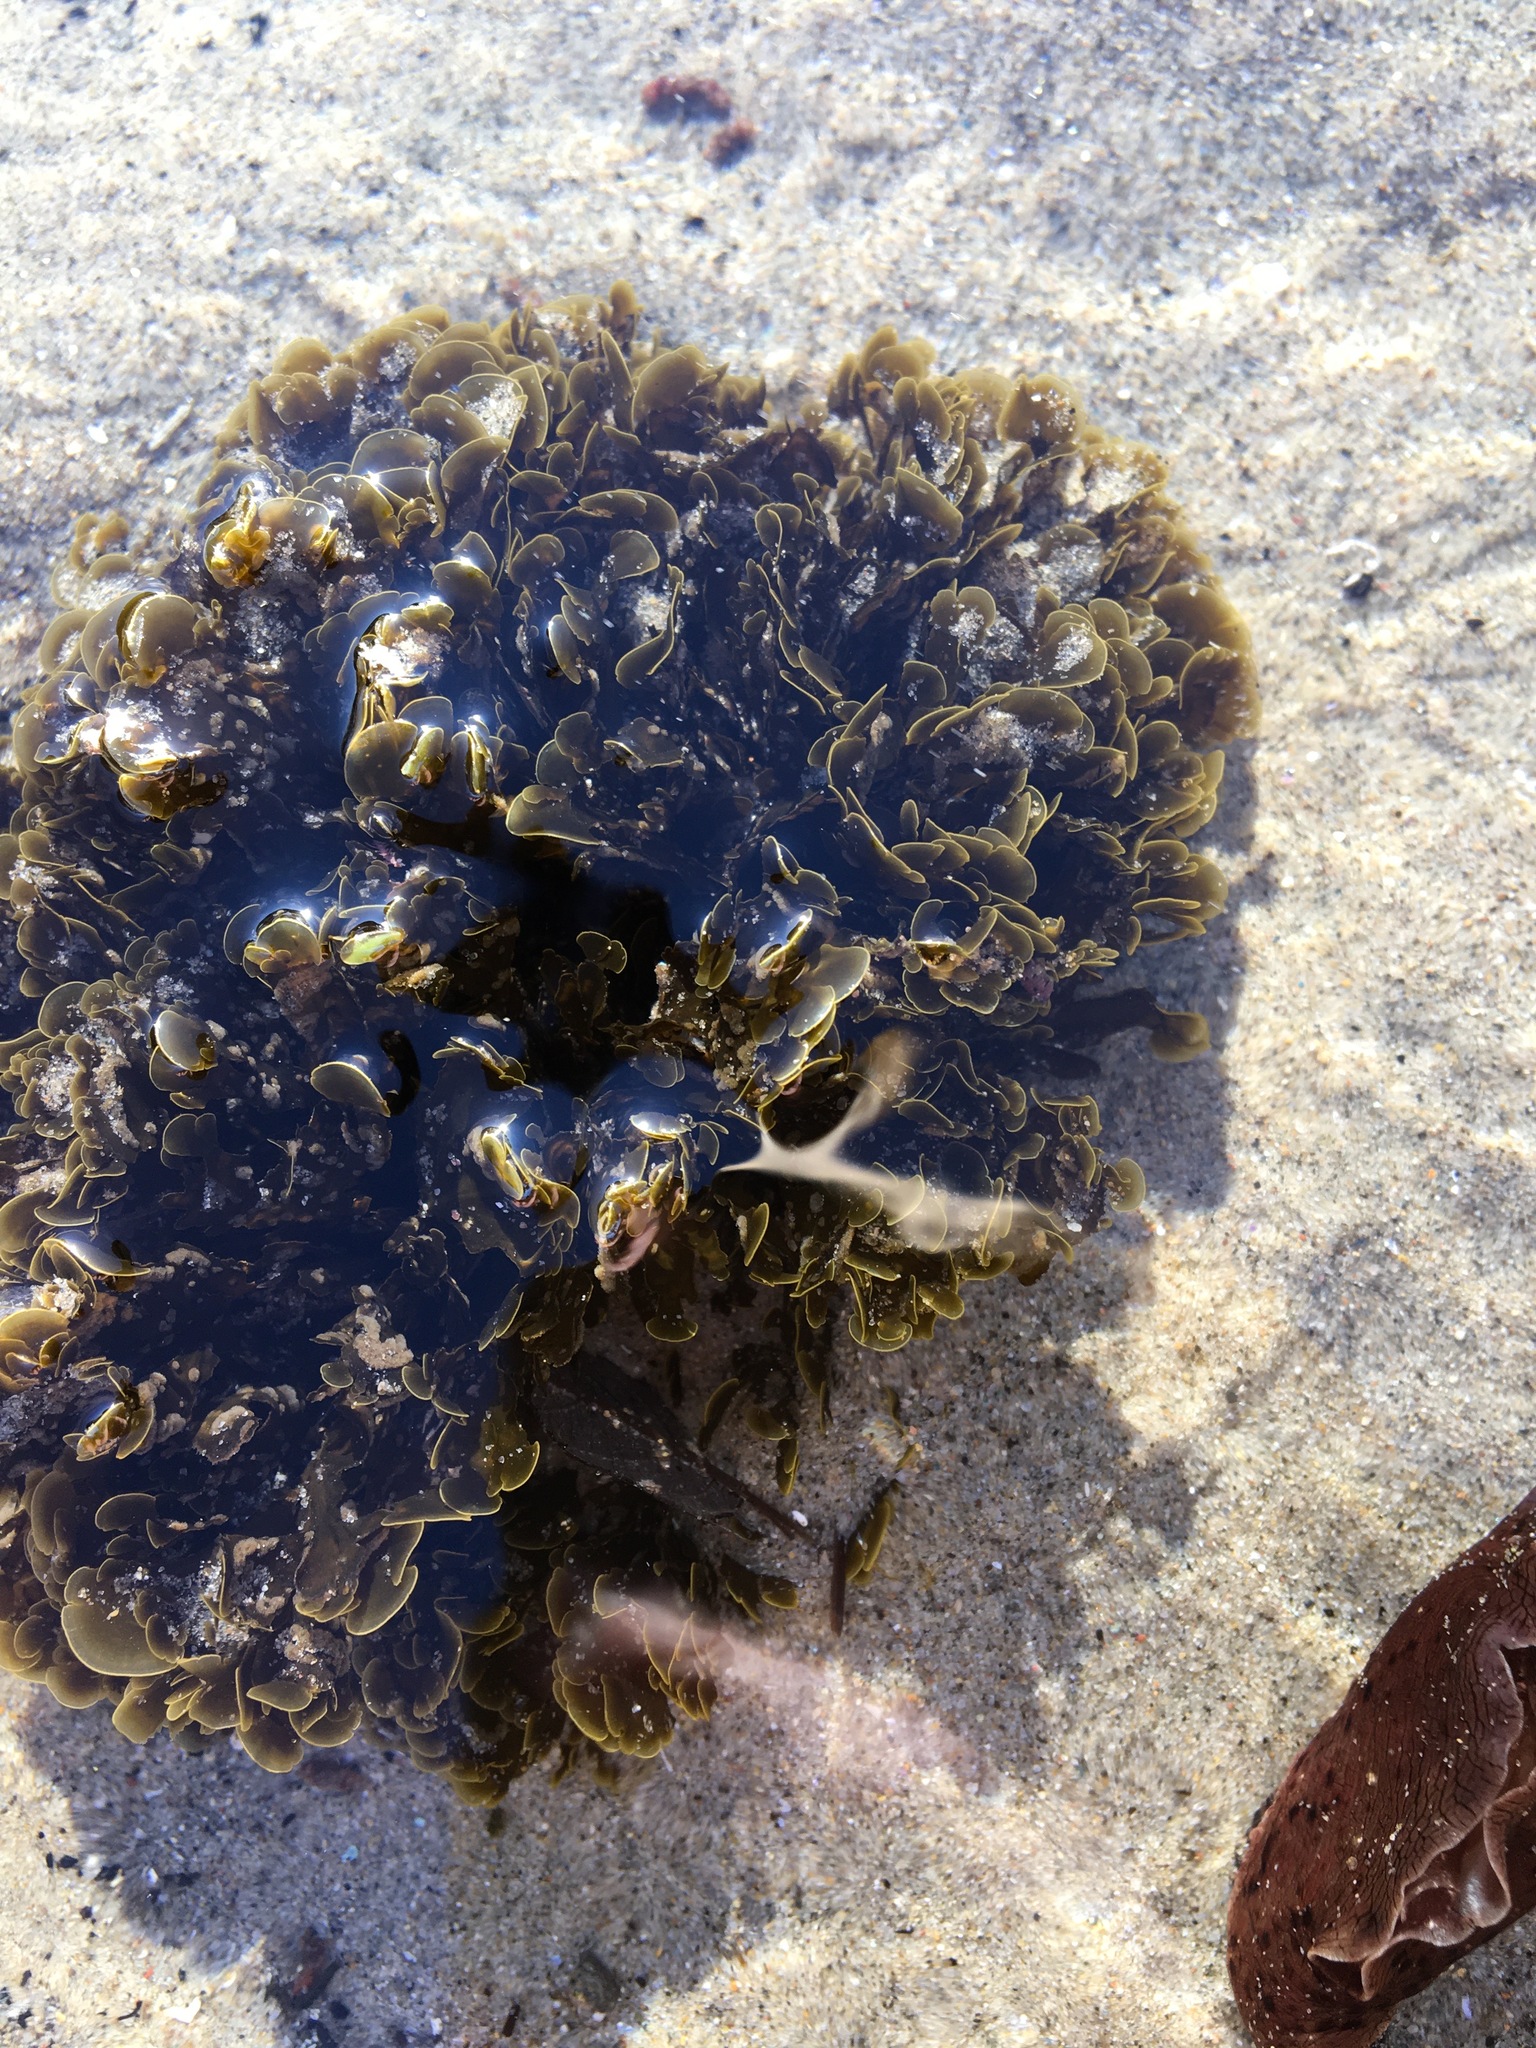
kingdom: Chromista
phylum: Ochrophyta
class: Phaeophyceae
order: Dictyotales
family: Dictyotaceae
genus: Zonaria
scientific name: Zonaria farlowii
